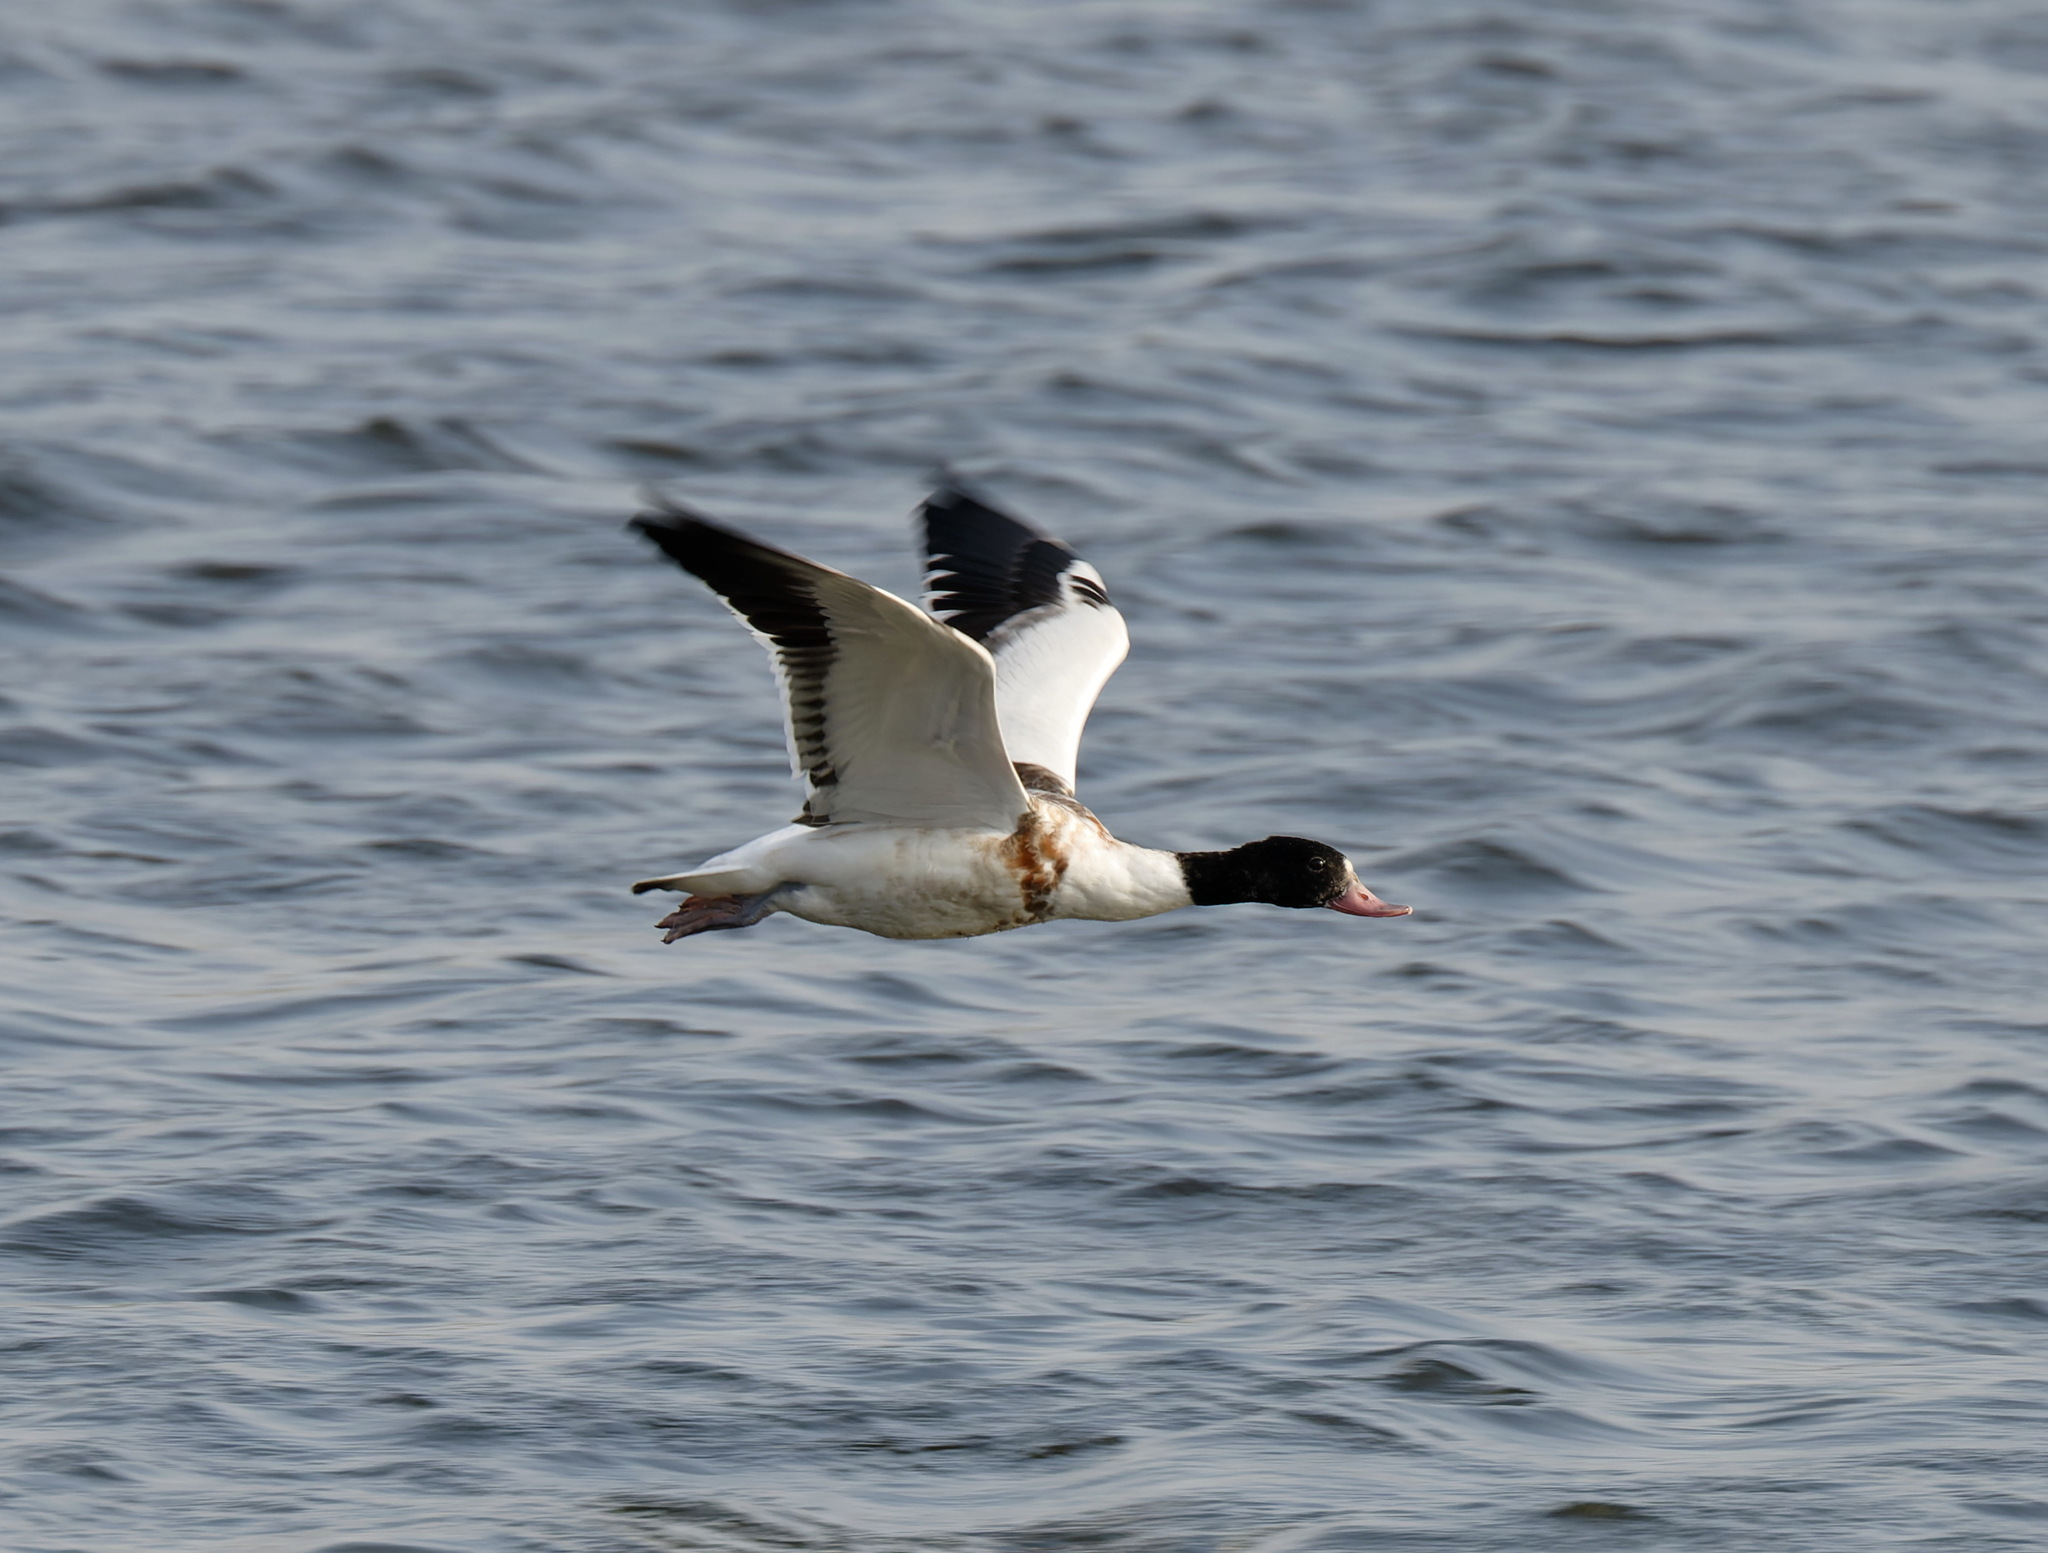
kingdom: Animalia
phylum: Chordata
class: Aves
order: Anseriformes
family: Anatidae
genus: Tadorna
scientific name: Tadorna tadorna
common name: Common shelduck
